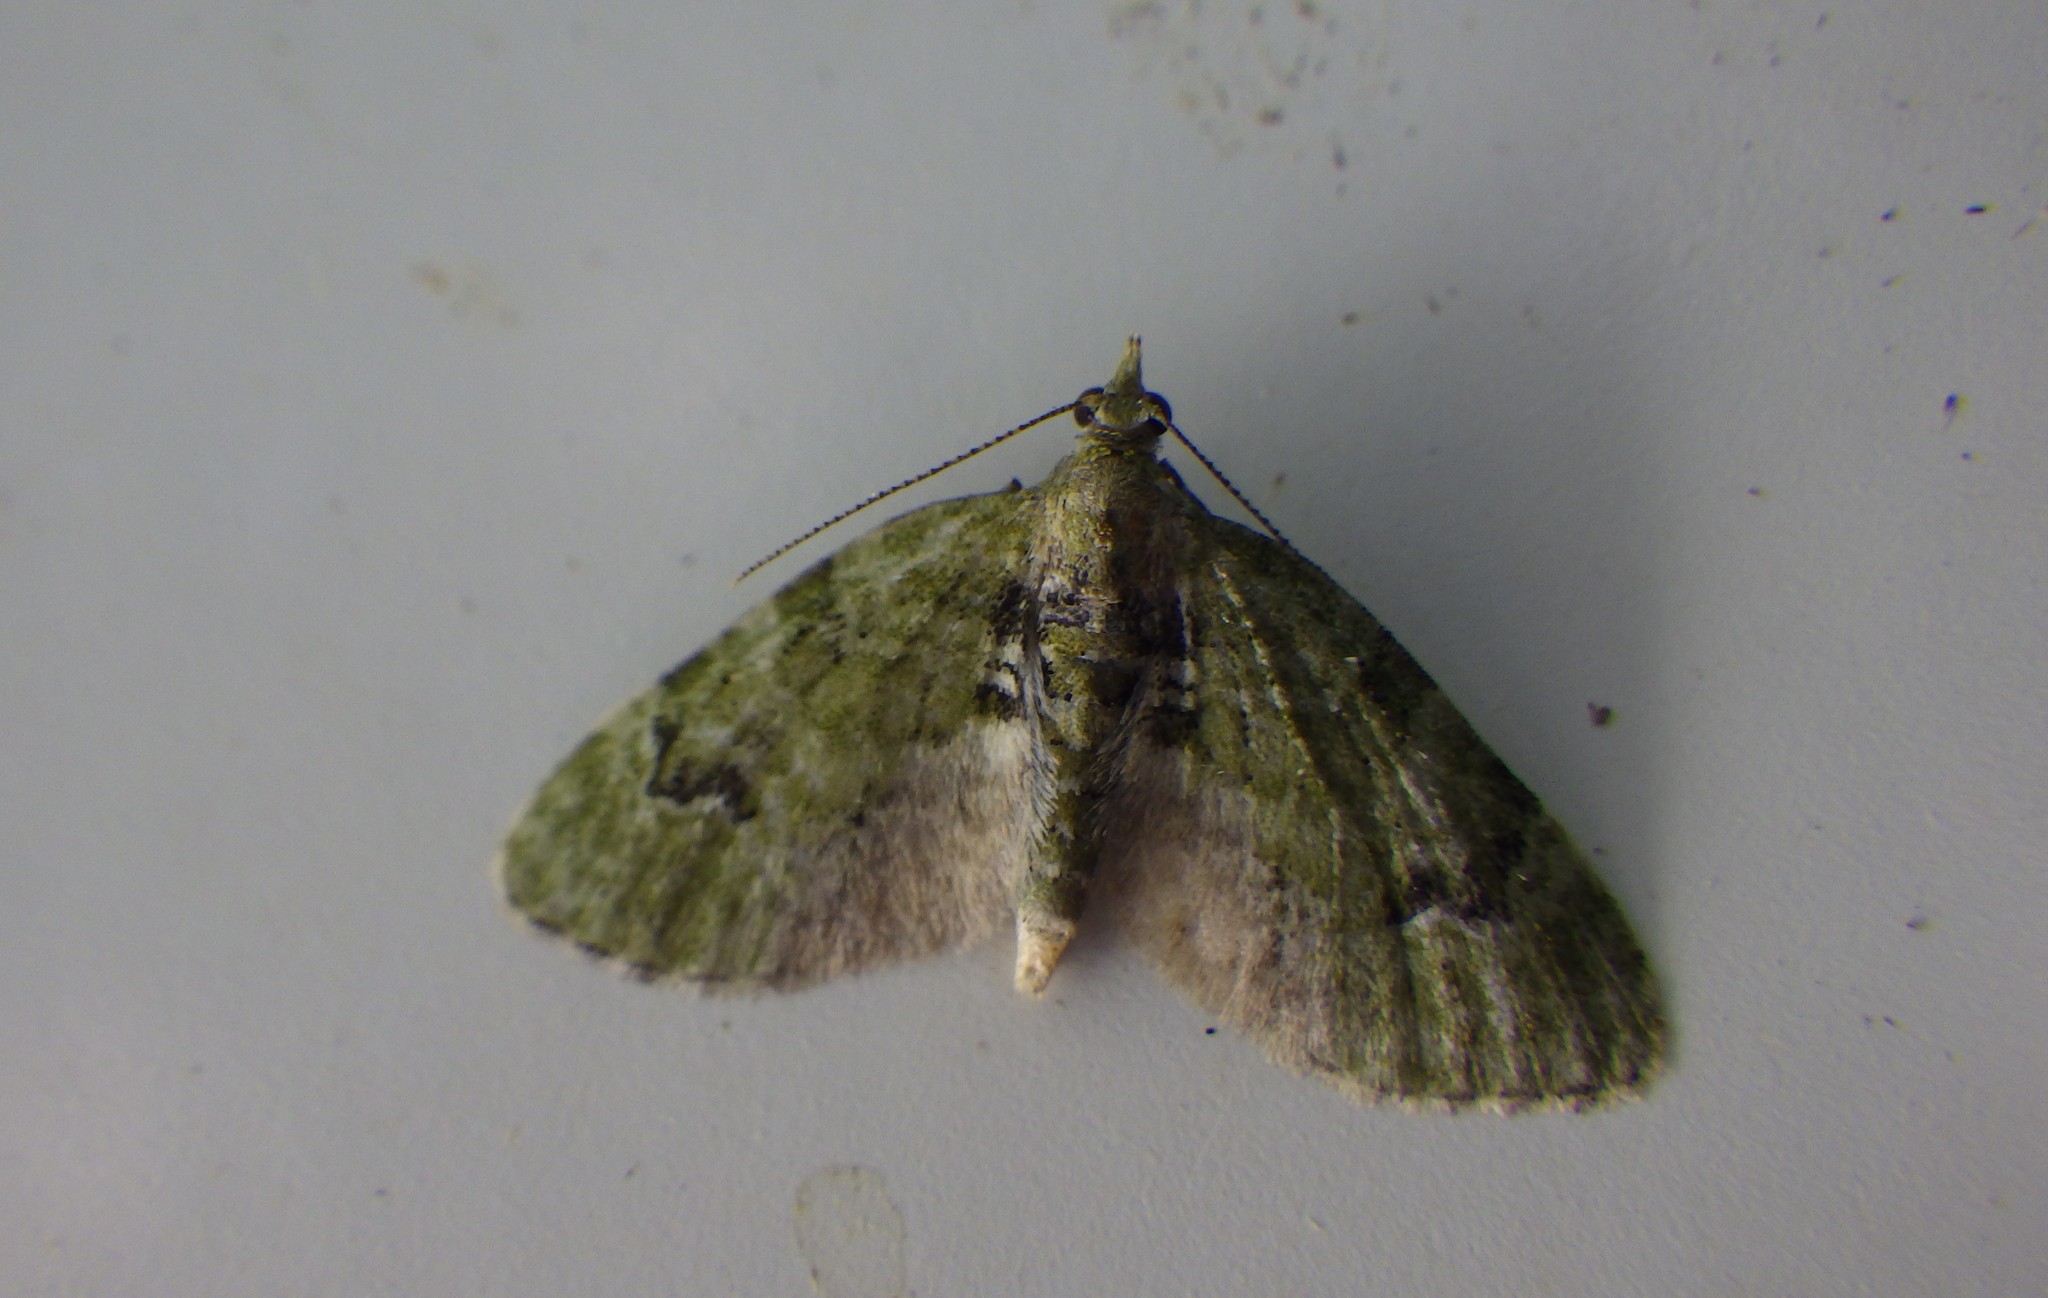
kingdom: Animalia
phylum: Arthropoda
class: Insecta
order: Lepidoptera
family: Geometridae
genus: Chloroclystis
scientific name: Chloroclystis v-ata
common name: V-pug
